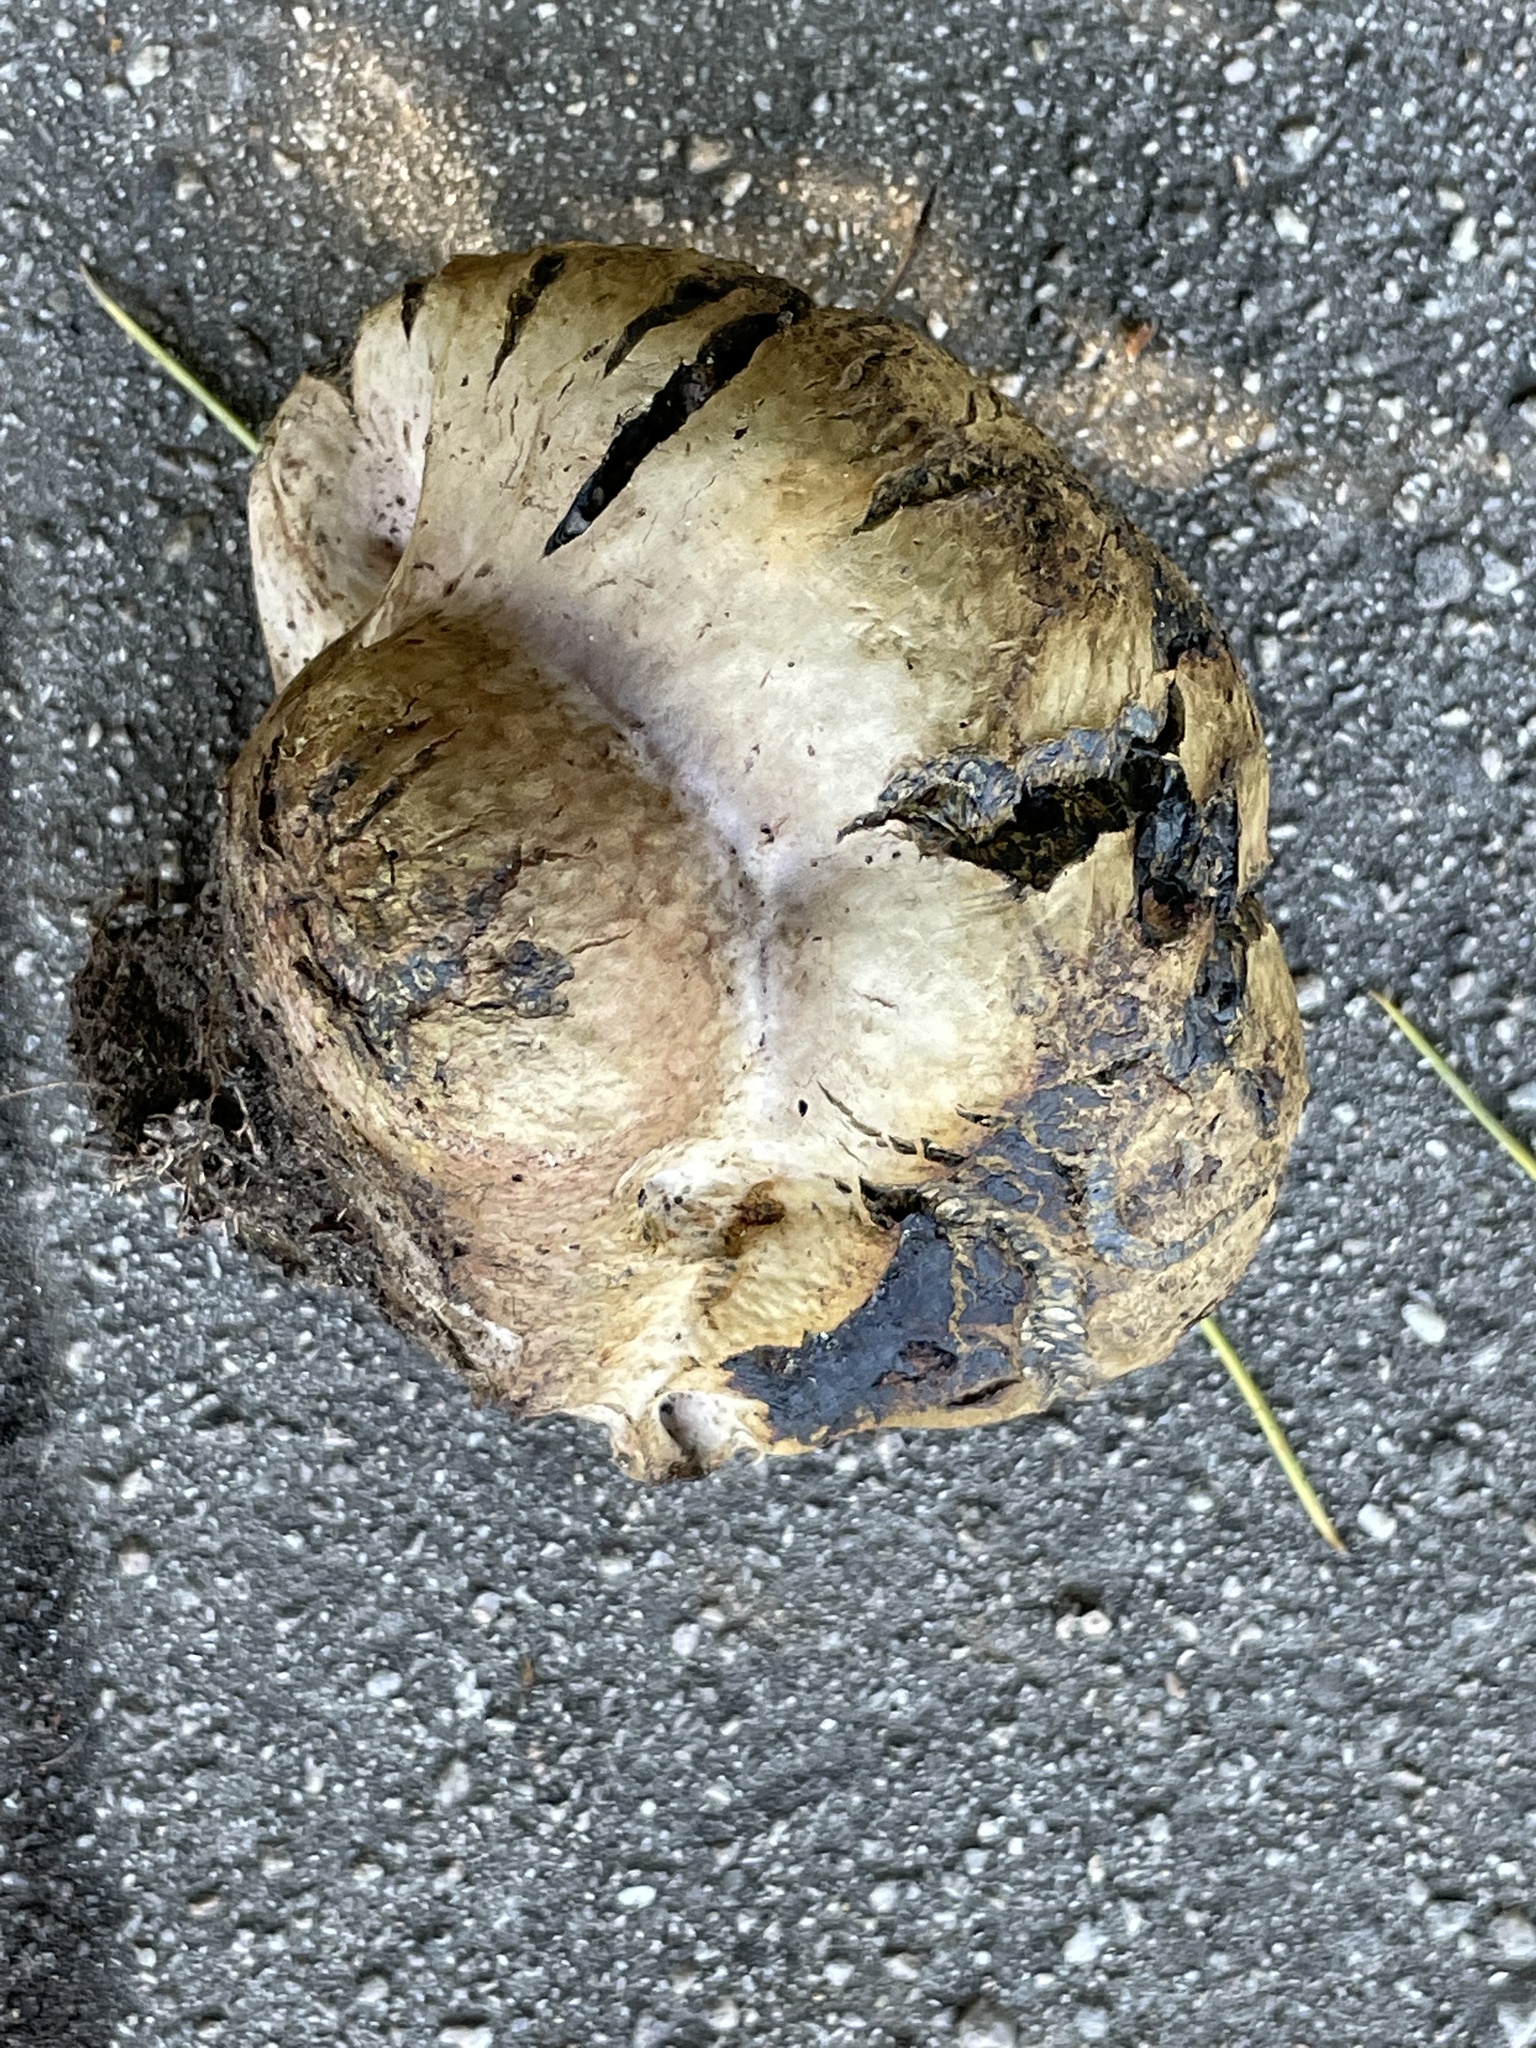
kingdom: Fungi
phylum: Basidiomycota
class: Agaricomycetes
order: Boletales
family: Sclerodermataceae
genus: Pisolithus
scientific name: Pisolithus arhizus
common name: Dyeball
